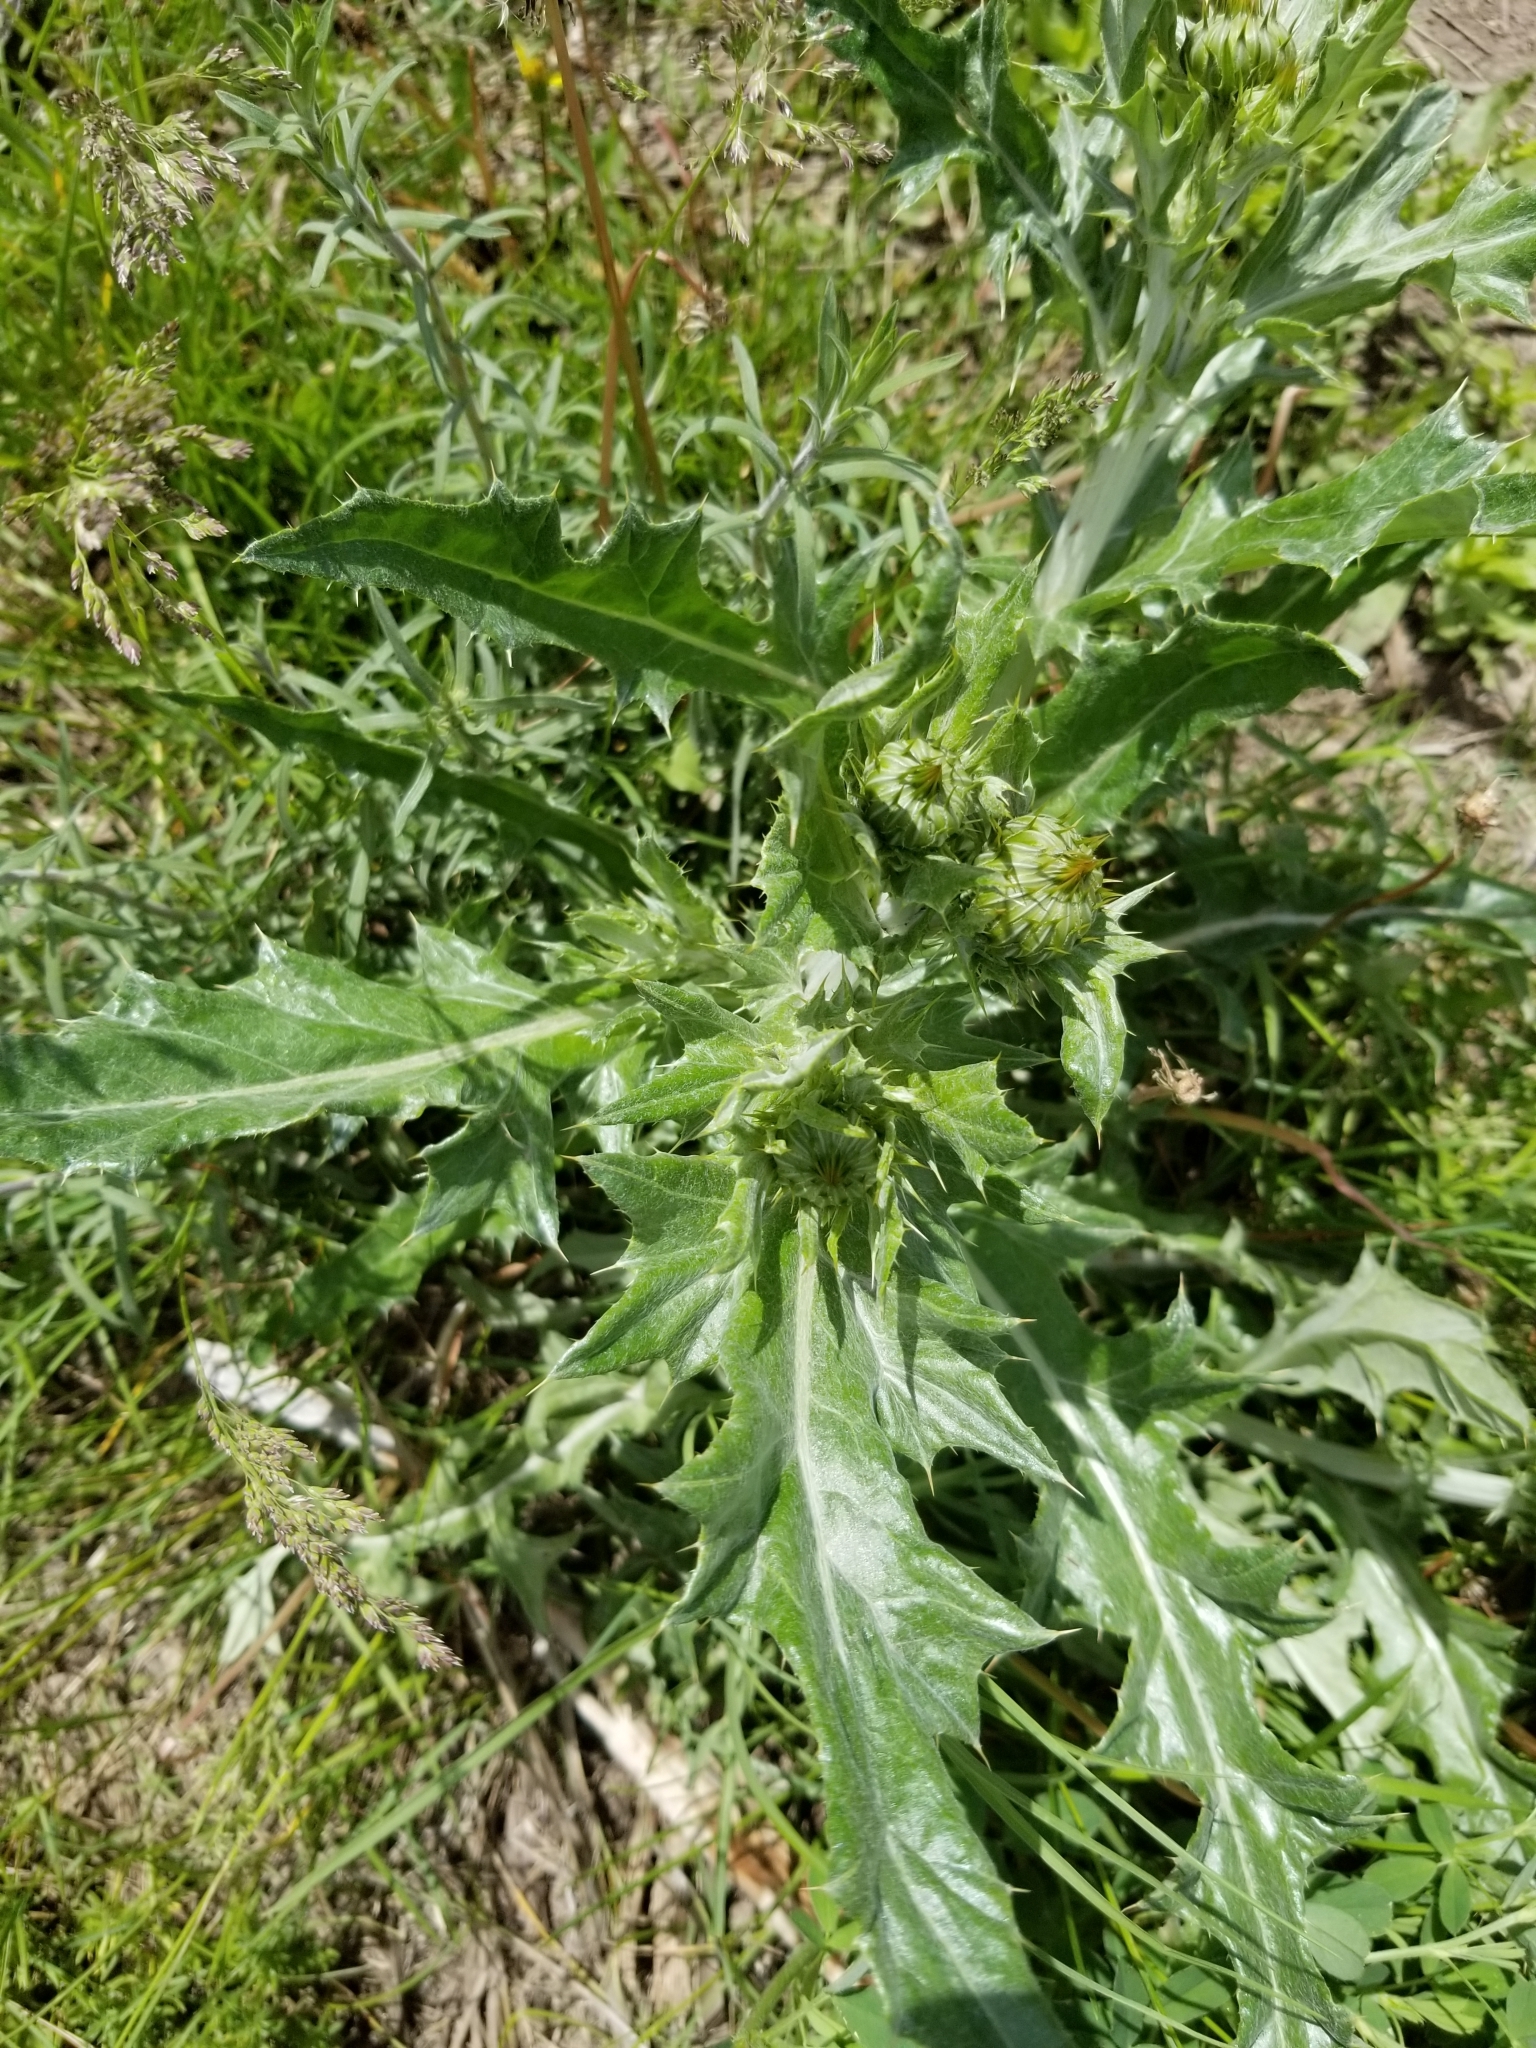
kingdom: Plantae
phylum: Tracheophyta
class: Magnoliopsida
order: Asterales
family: Asteraceae
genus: Cirsium
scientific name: Cirsium undulatum
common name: Pasture thistle
